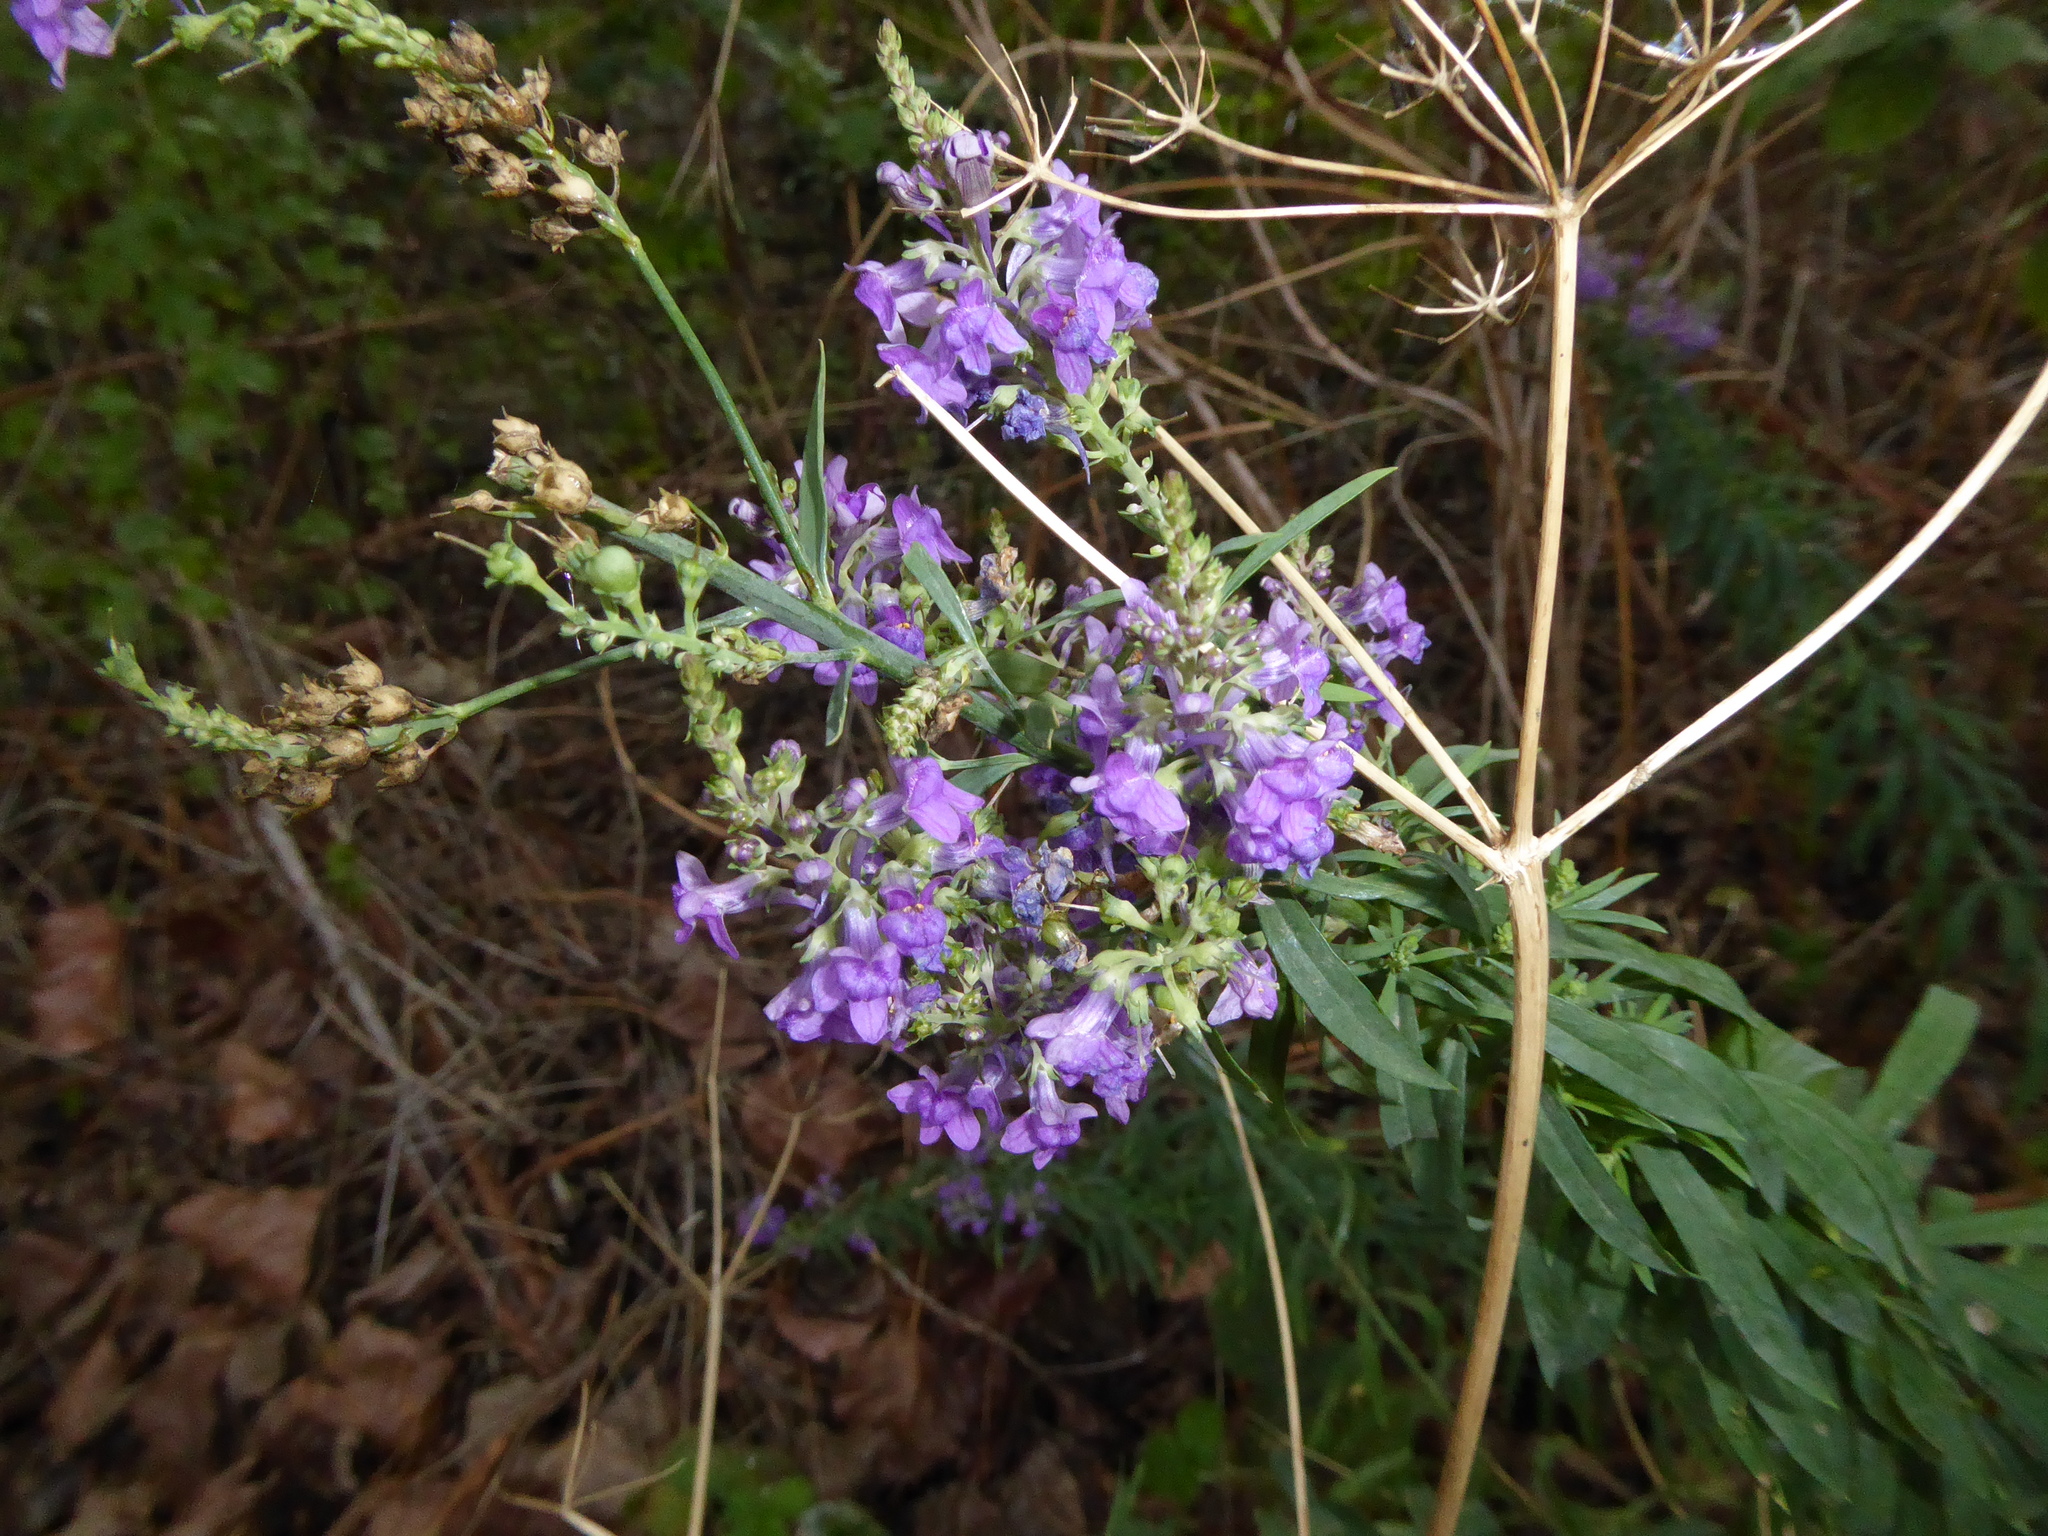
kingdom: Plantae
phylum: Tracheophyta
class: Magnoliopsida
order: Lamiales
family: Plantaginaceae
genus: Linaria
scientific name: Linaria purpurea
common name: Purple toadflax
